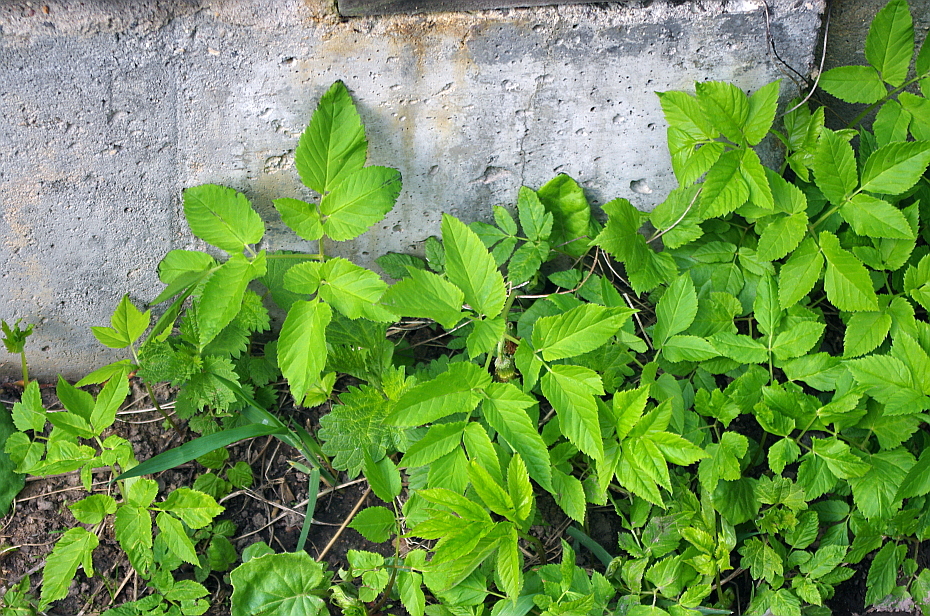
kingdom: Plantae
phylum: Tracheophyta
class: Magnoliopsida
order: Apiales
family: Apiaceae
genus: Aegopodium
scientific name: Aegopodium podagraria
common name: Ground-elder
